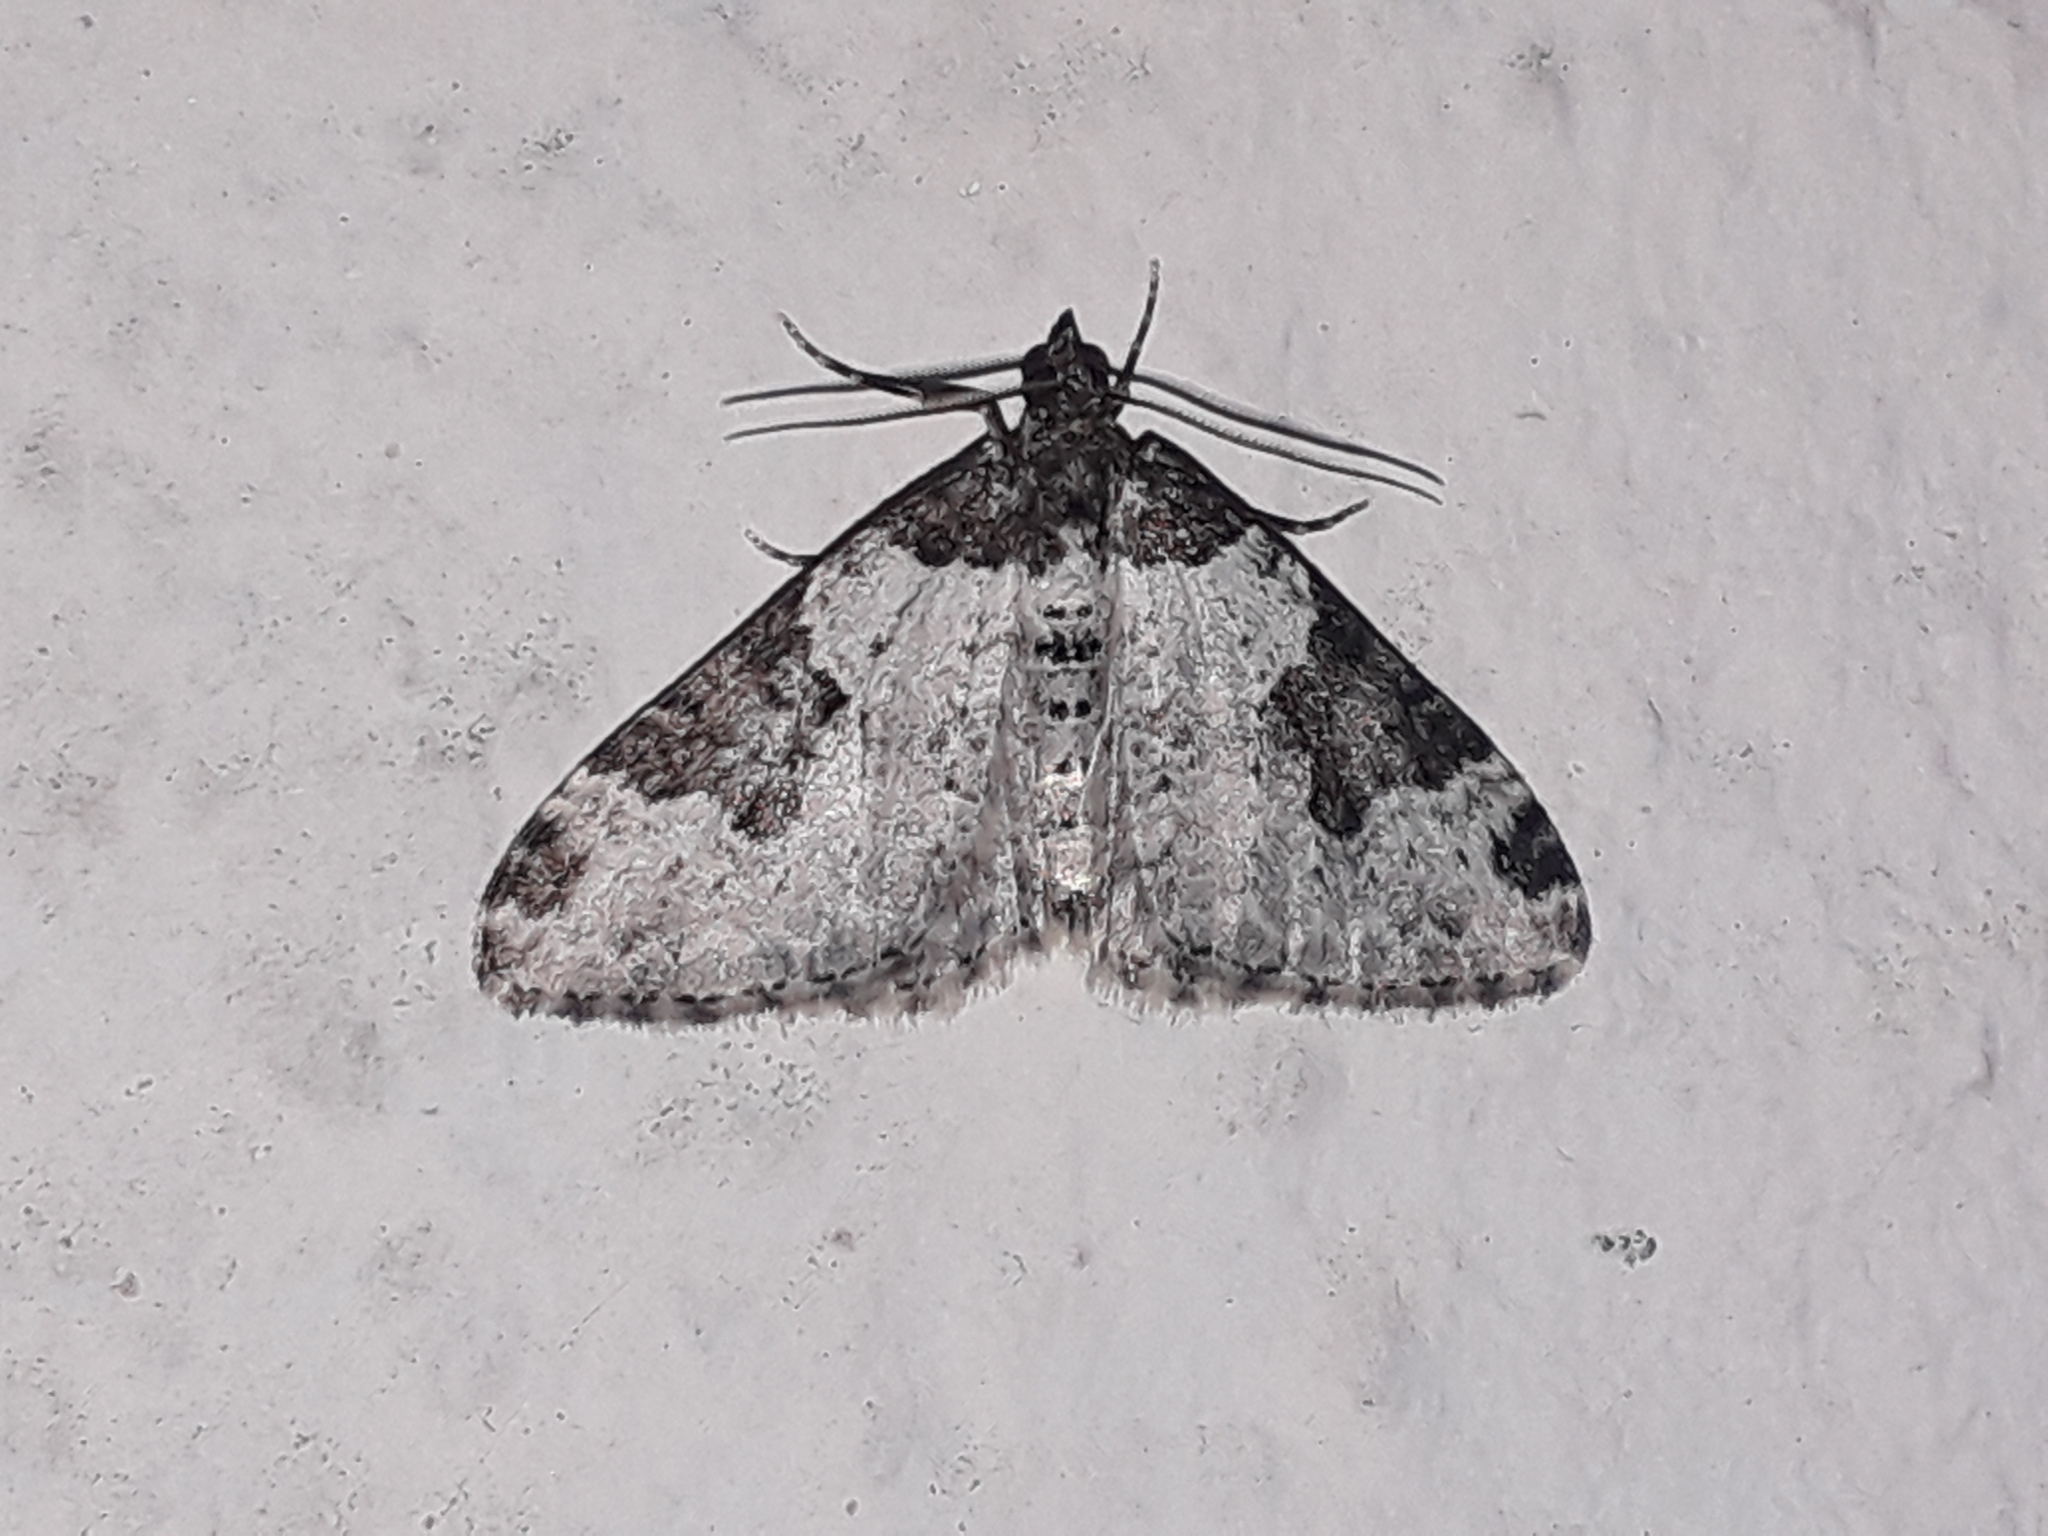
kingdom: Animalia
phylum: Arthropoda
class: Insecta
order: Lepidoptera
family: Geometridae
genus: Xanthorhoe
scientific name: Xanthorhoe fluctuata
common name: Garden carpet
